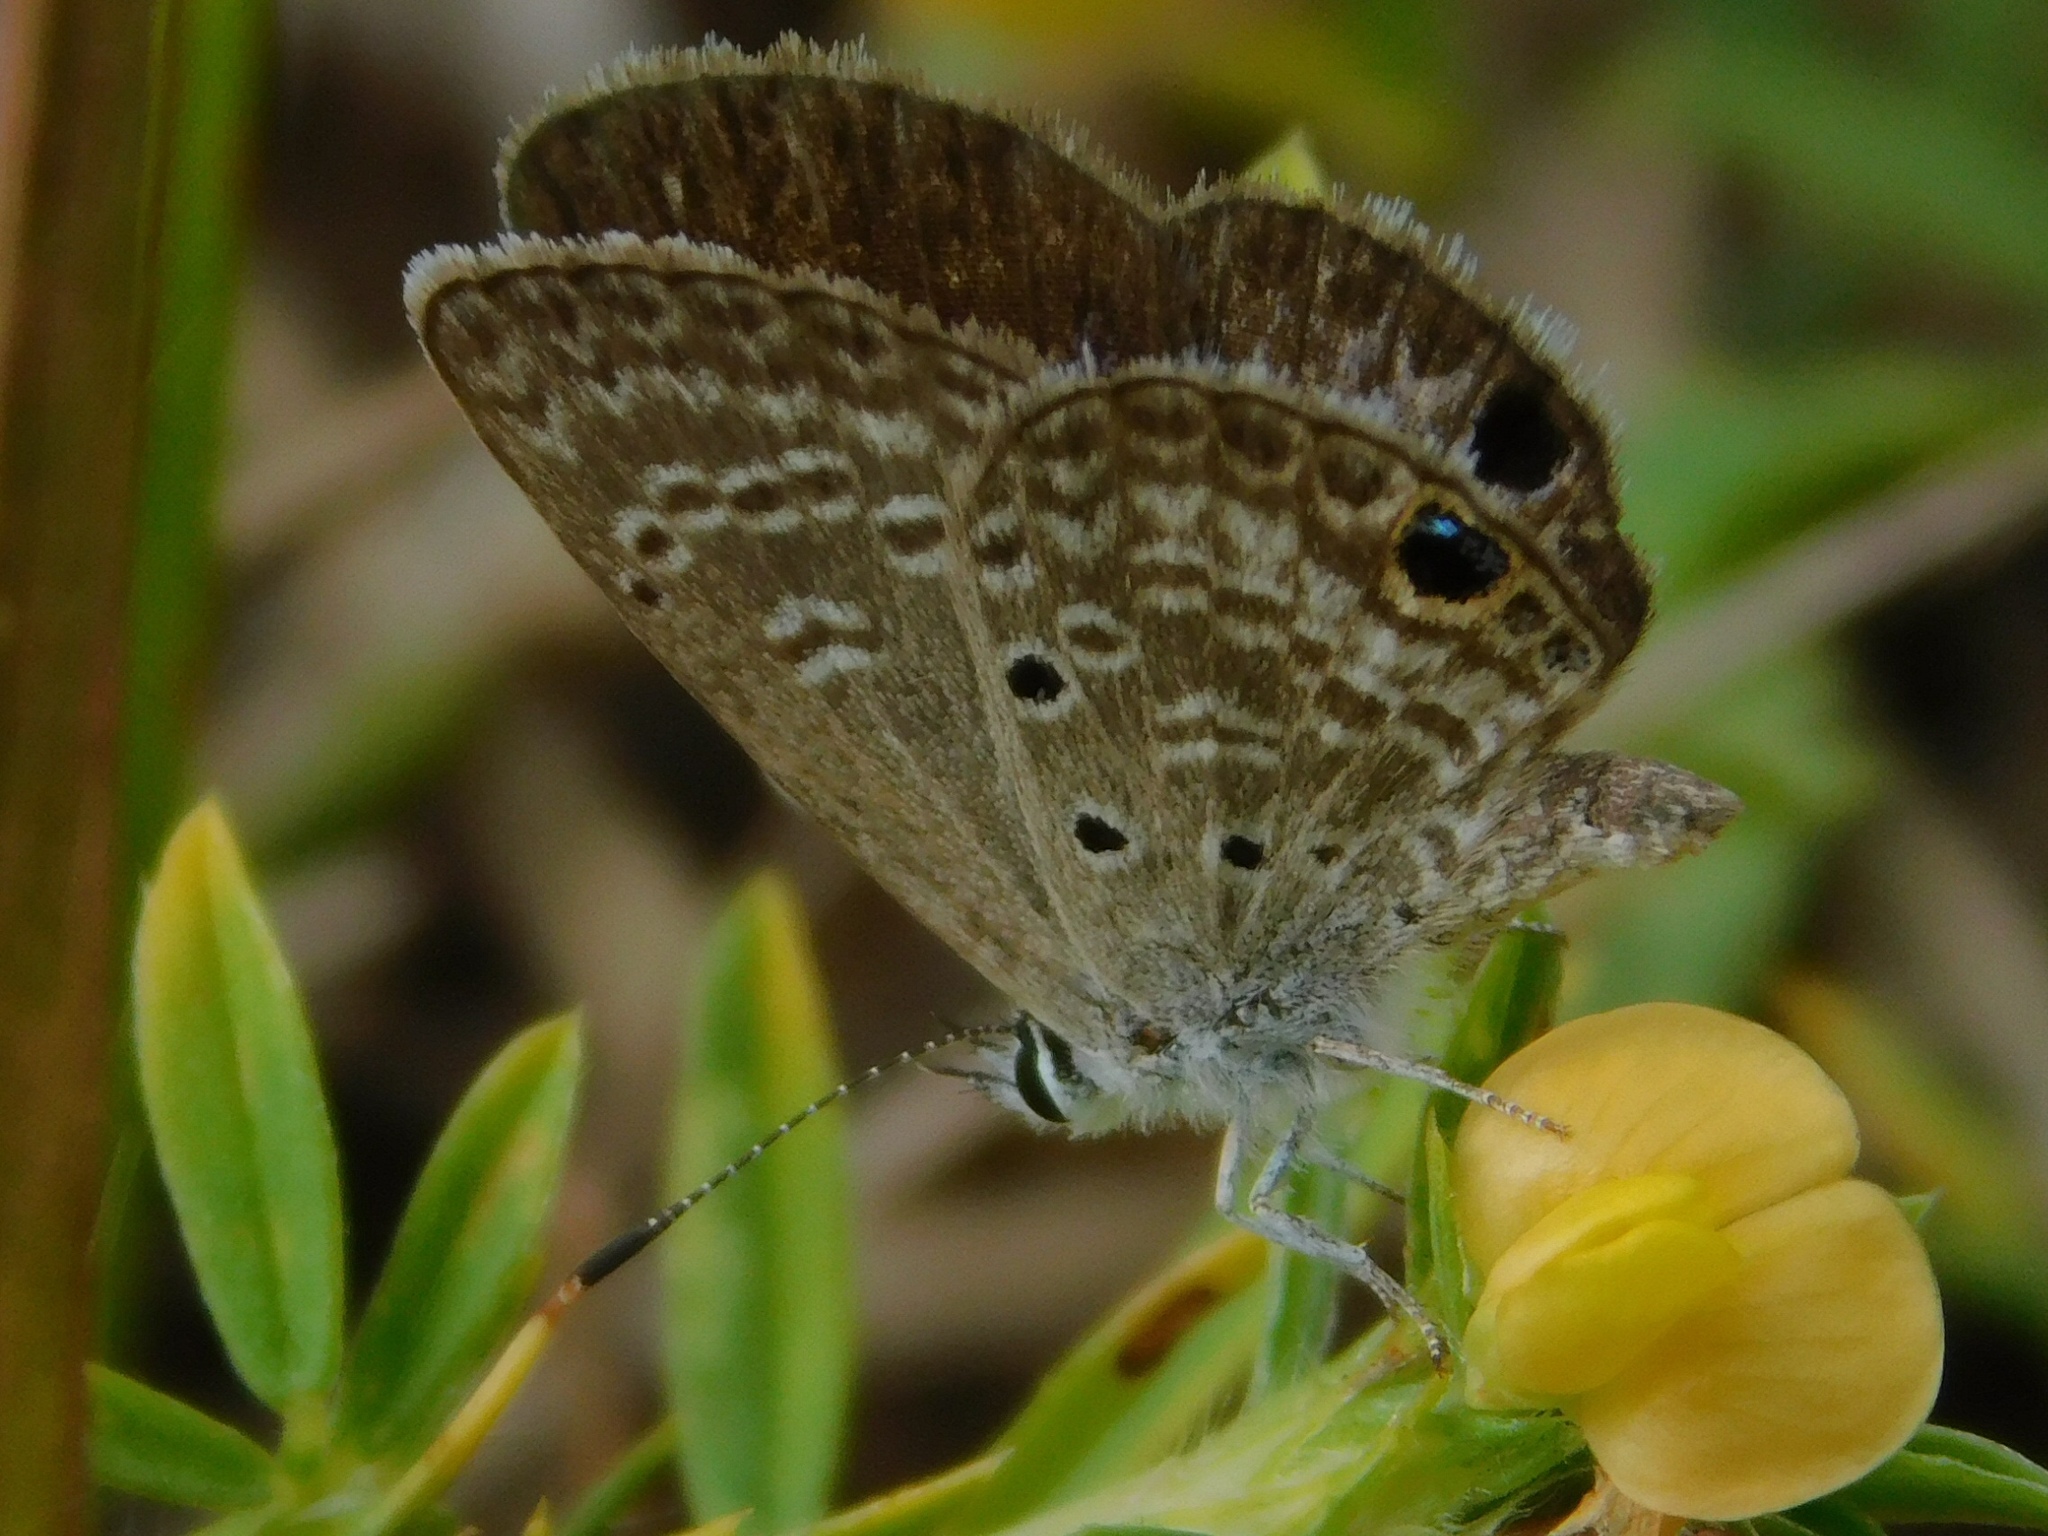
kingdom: Animalia
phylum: Arthropoda
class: Insecta
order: Lepidoptera
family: Lycaenidae
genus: Hemiargus
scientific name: Hemiargus ceraunus
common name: Ceraunus blue
